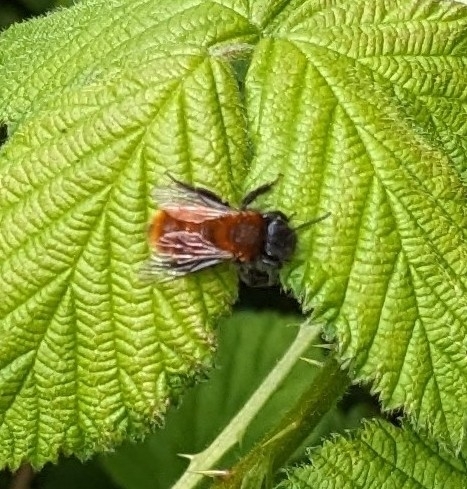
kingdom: Animalia
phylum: Arthropoda
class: Insecta
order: Hymenoptera
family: Andrenidae
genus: Andrena
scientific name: Andrena fulva
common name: Tawny mining bee
